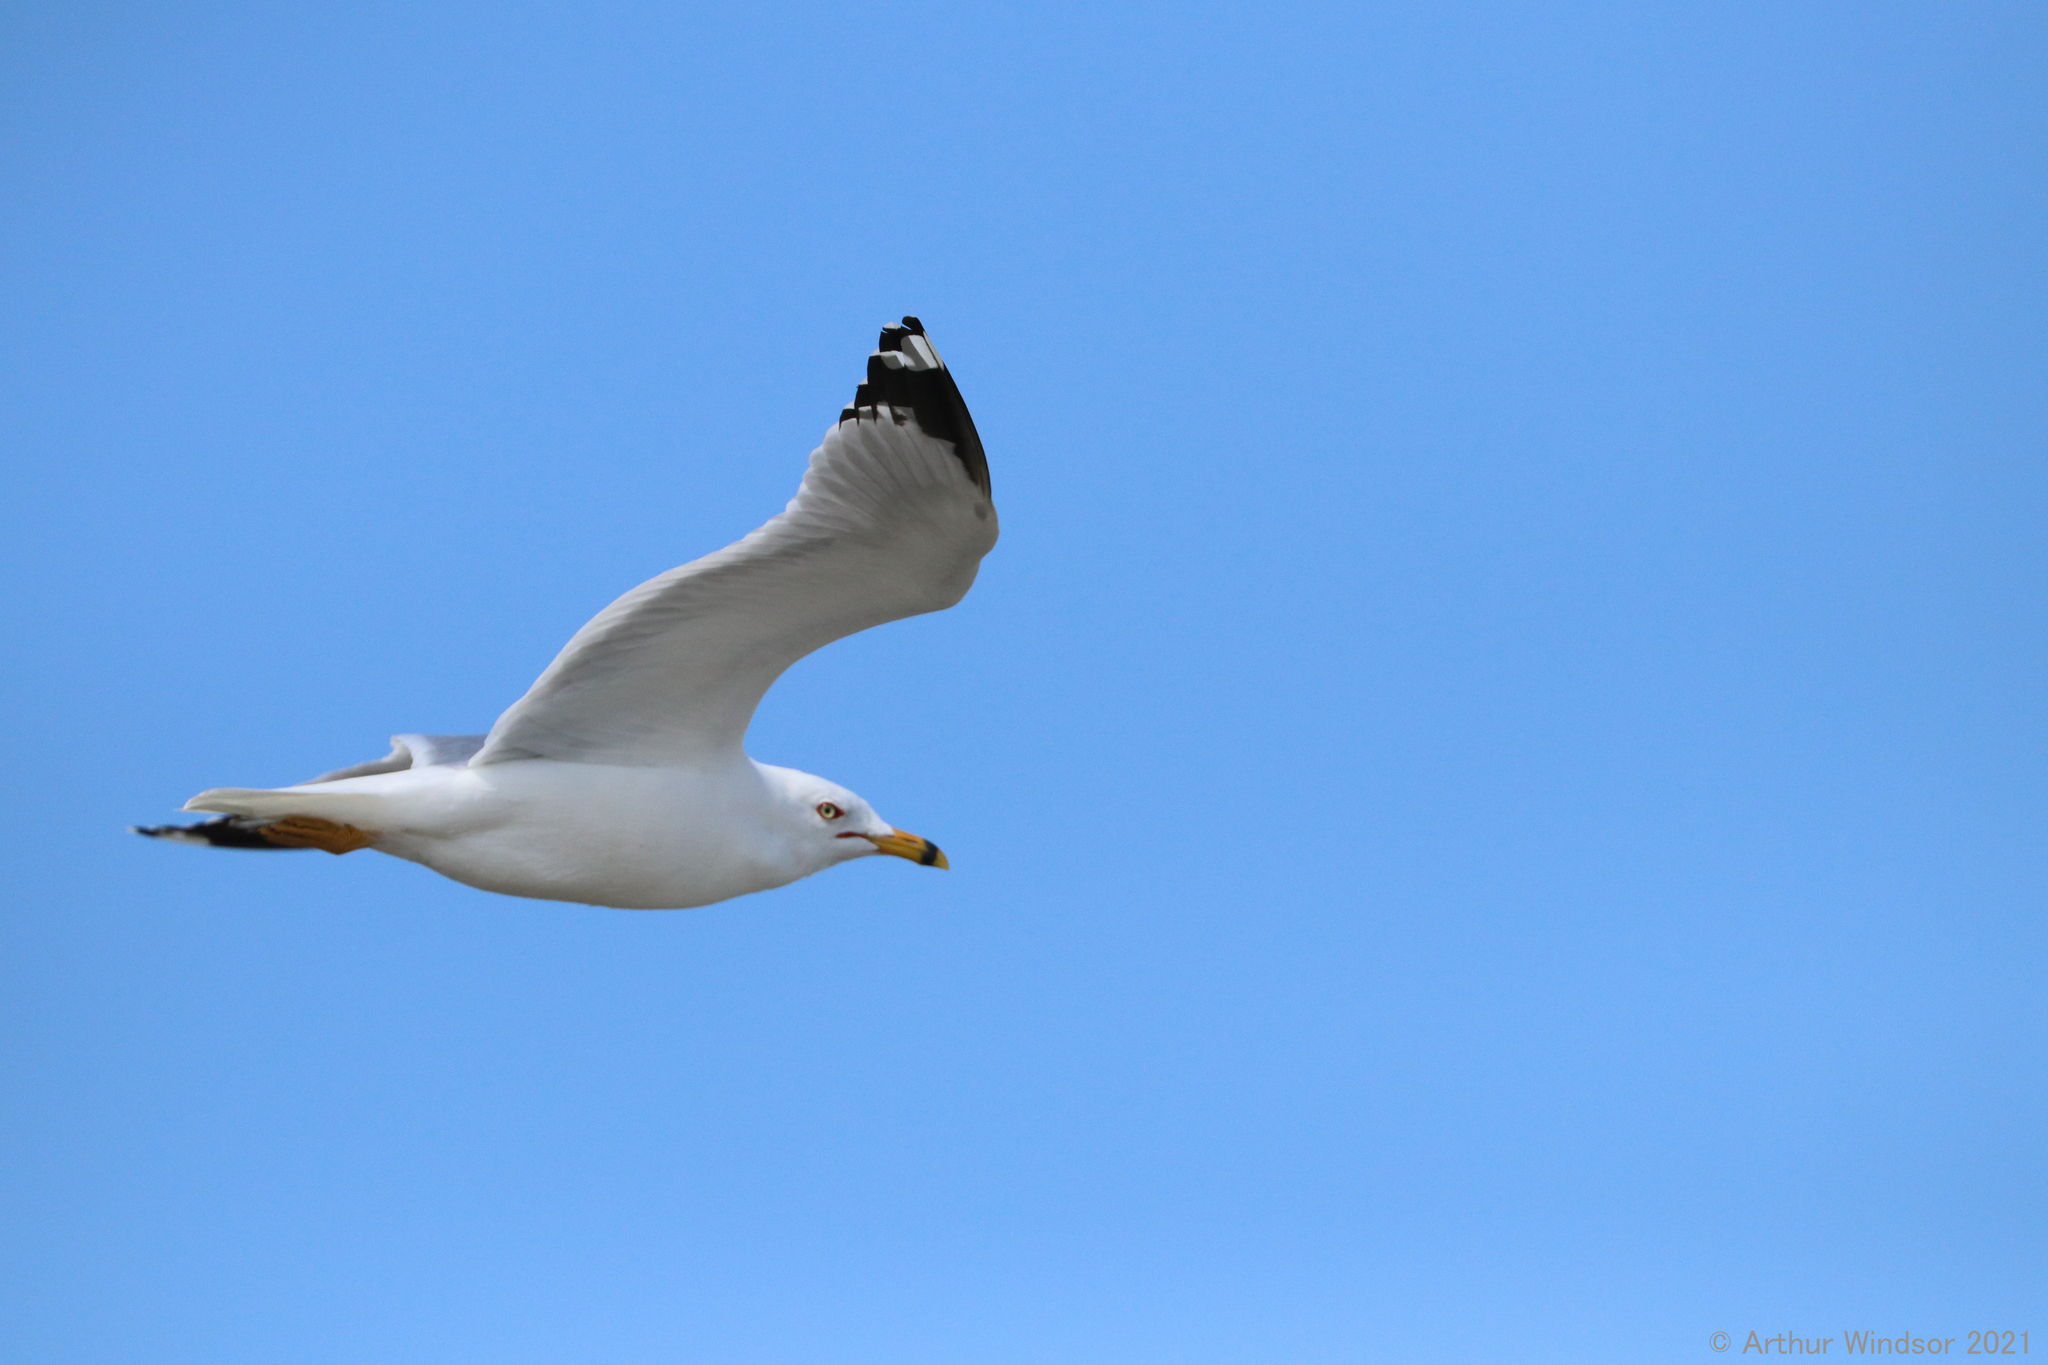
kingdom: Animalia
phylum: Chordata
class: Aves
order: Charadriiformes
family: Laridae
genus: Larus
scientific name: Larus delawarensis
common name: Ring-billed gull
